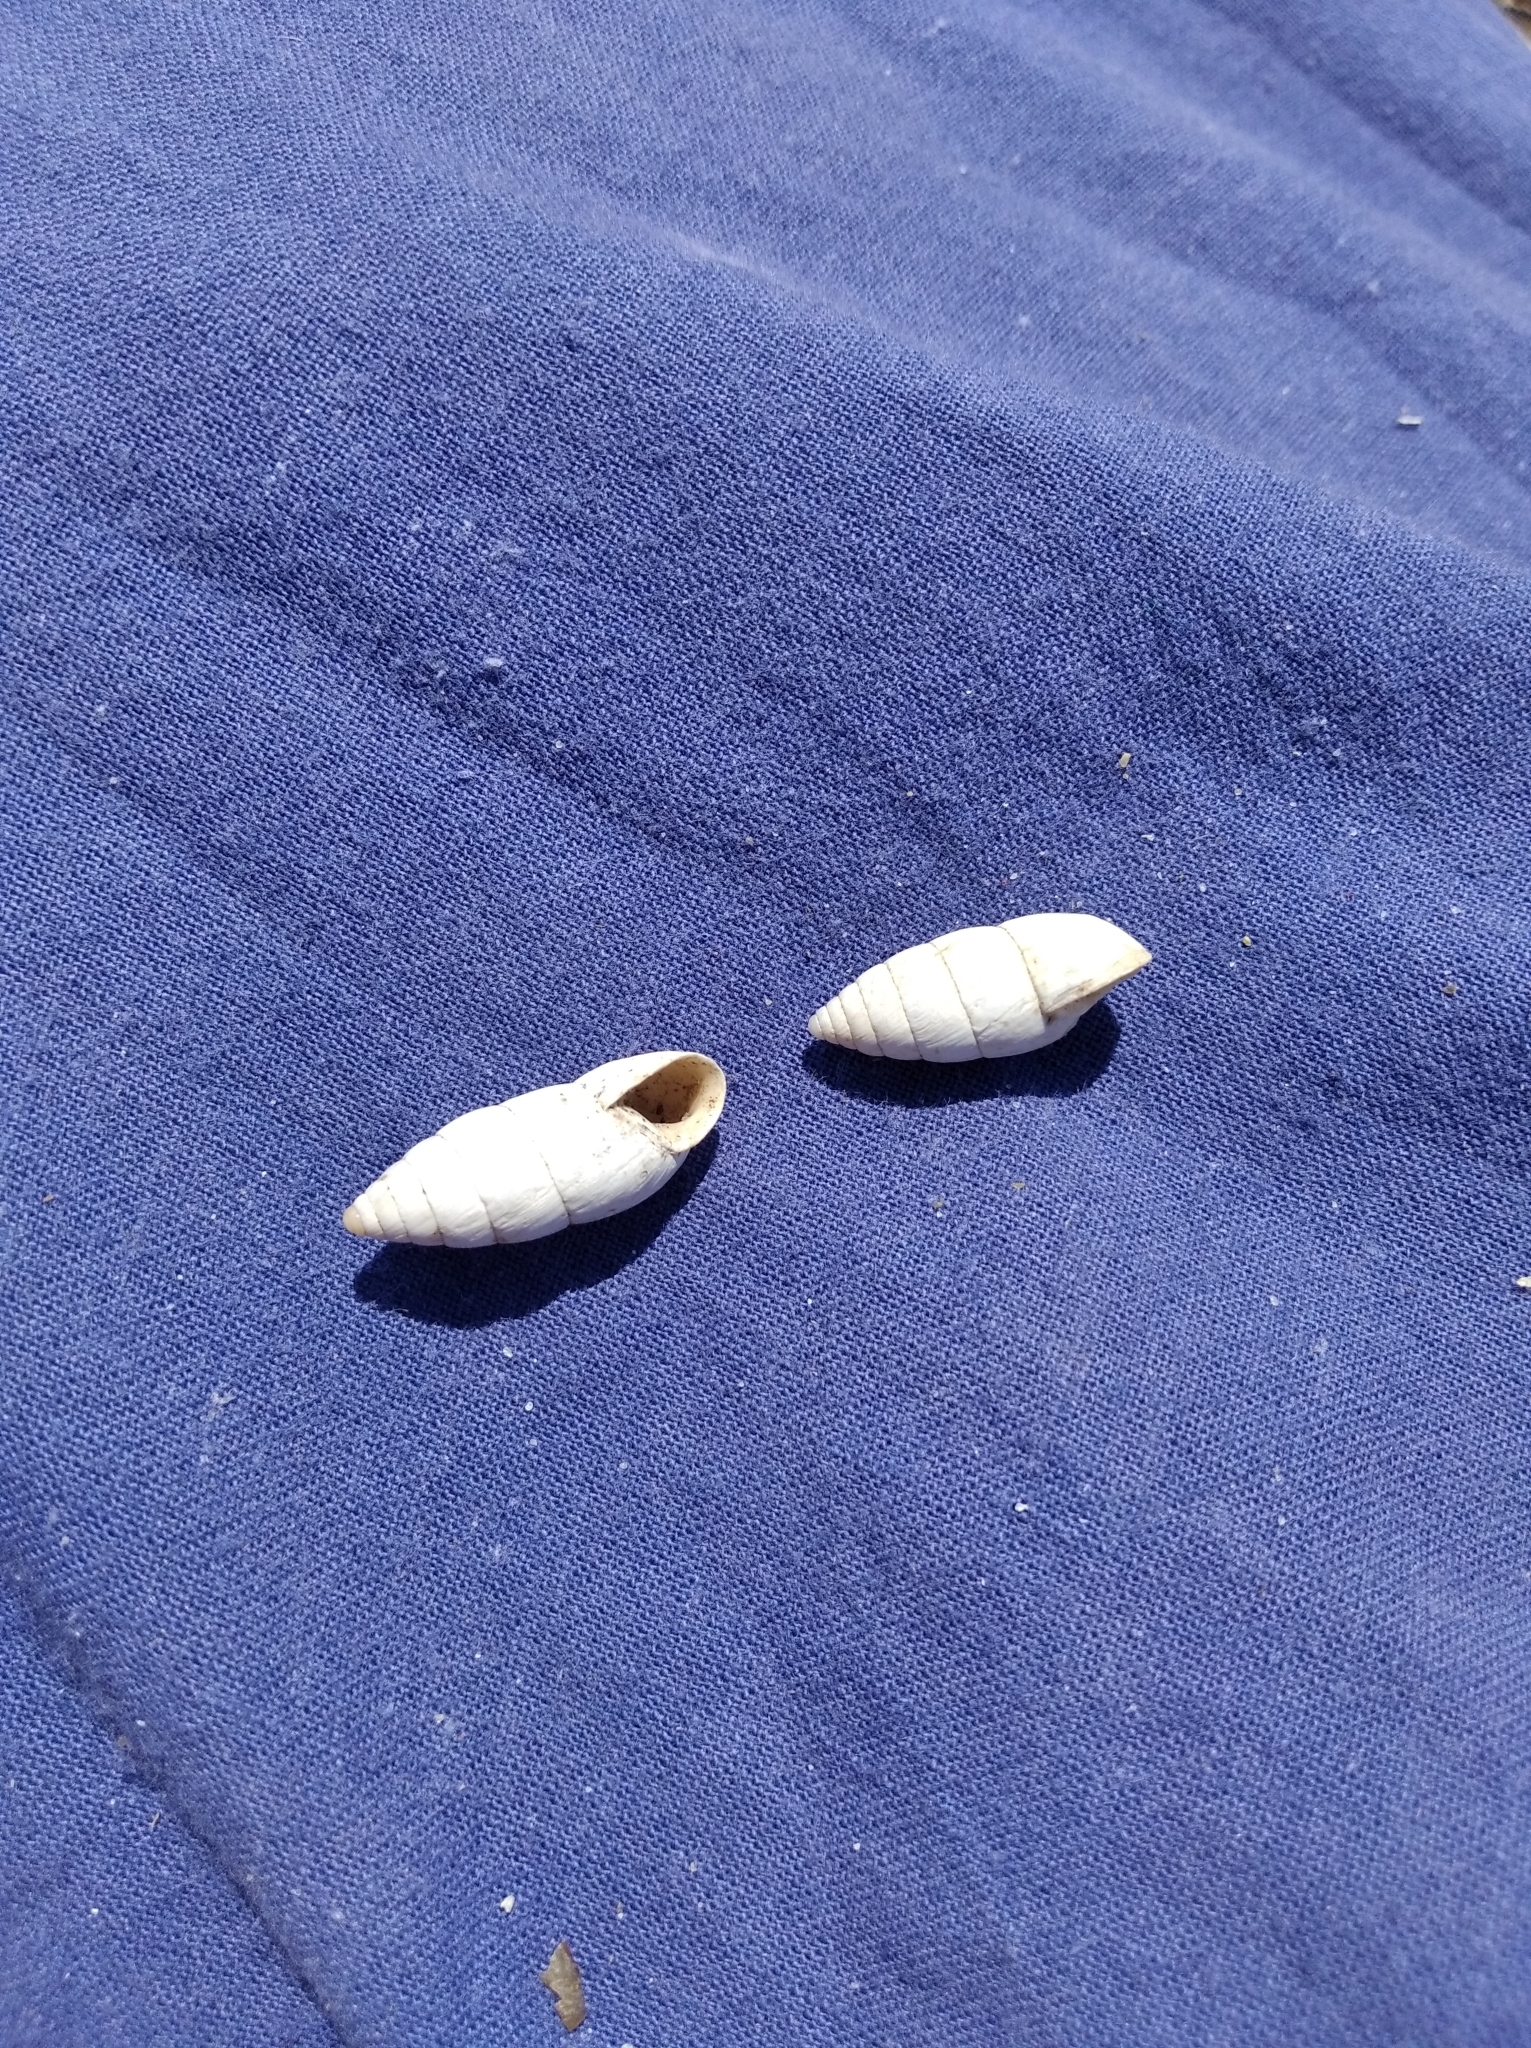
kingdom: Animalia
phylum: Mollusca
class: Gastropoda
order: Stylommatophora
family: Enidae
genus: Brephulopsis
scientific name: Brephulopsis cylindrica
